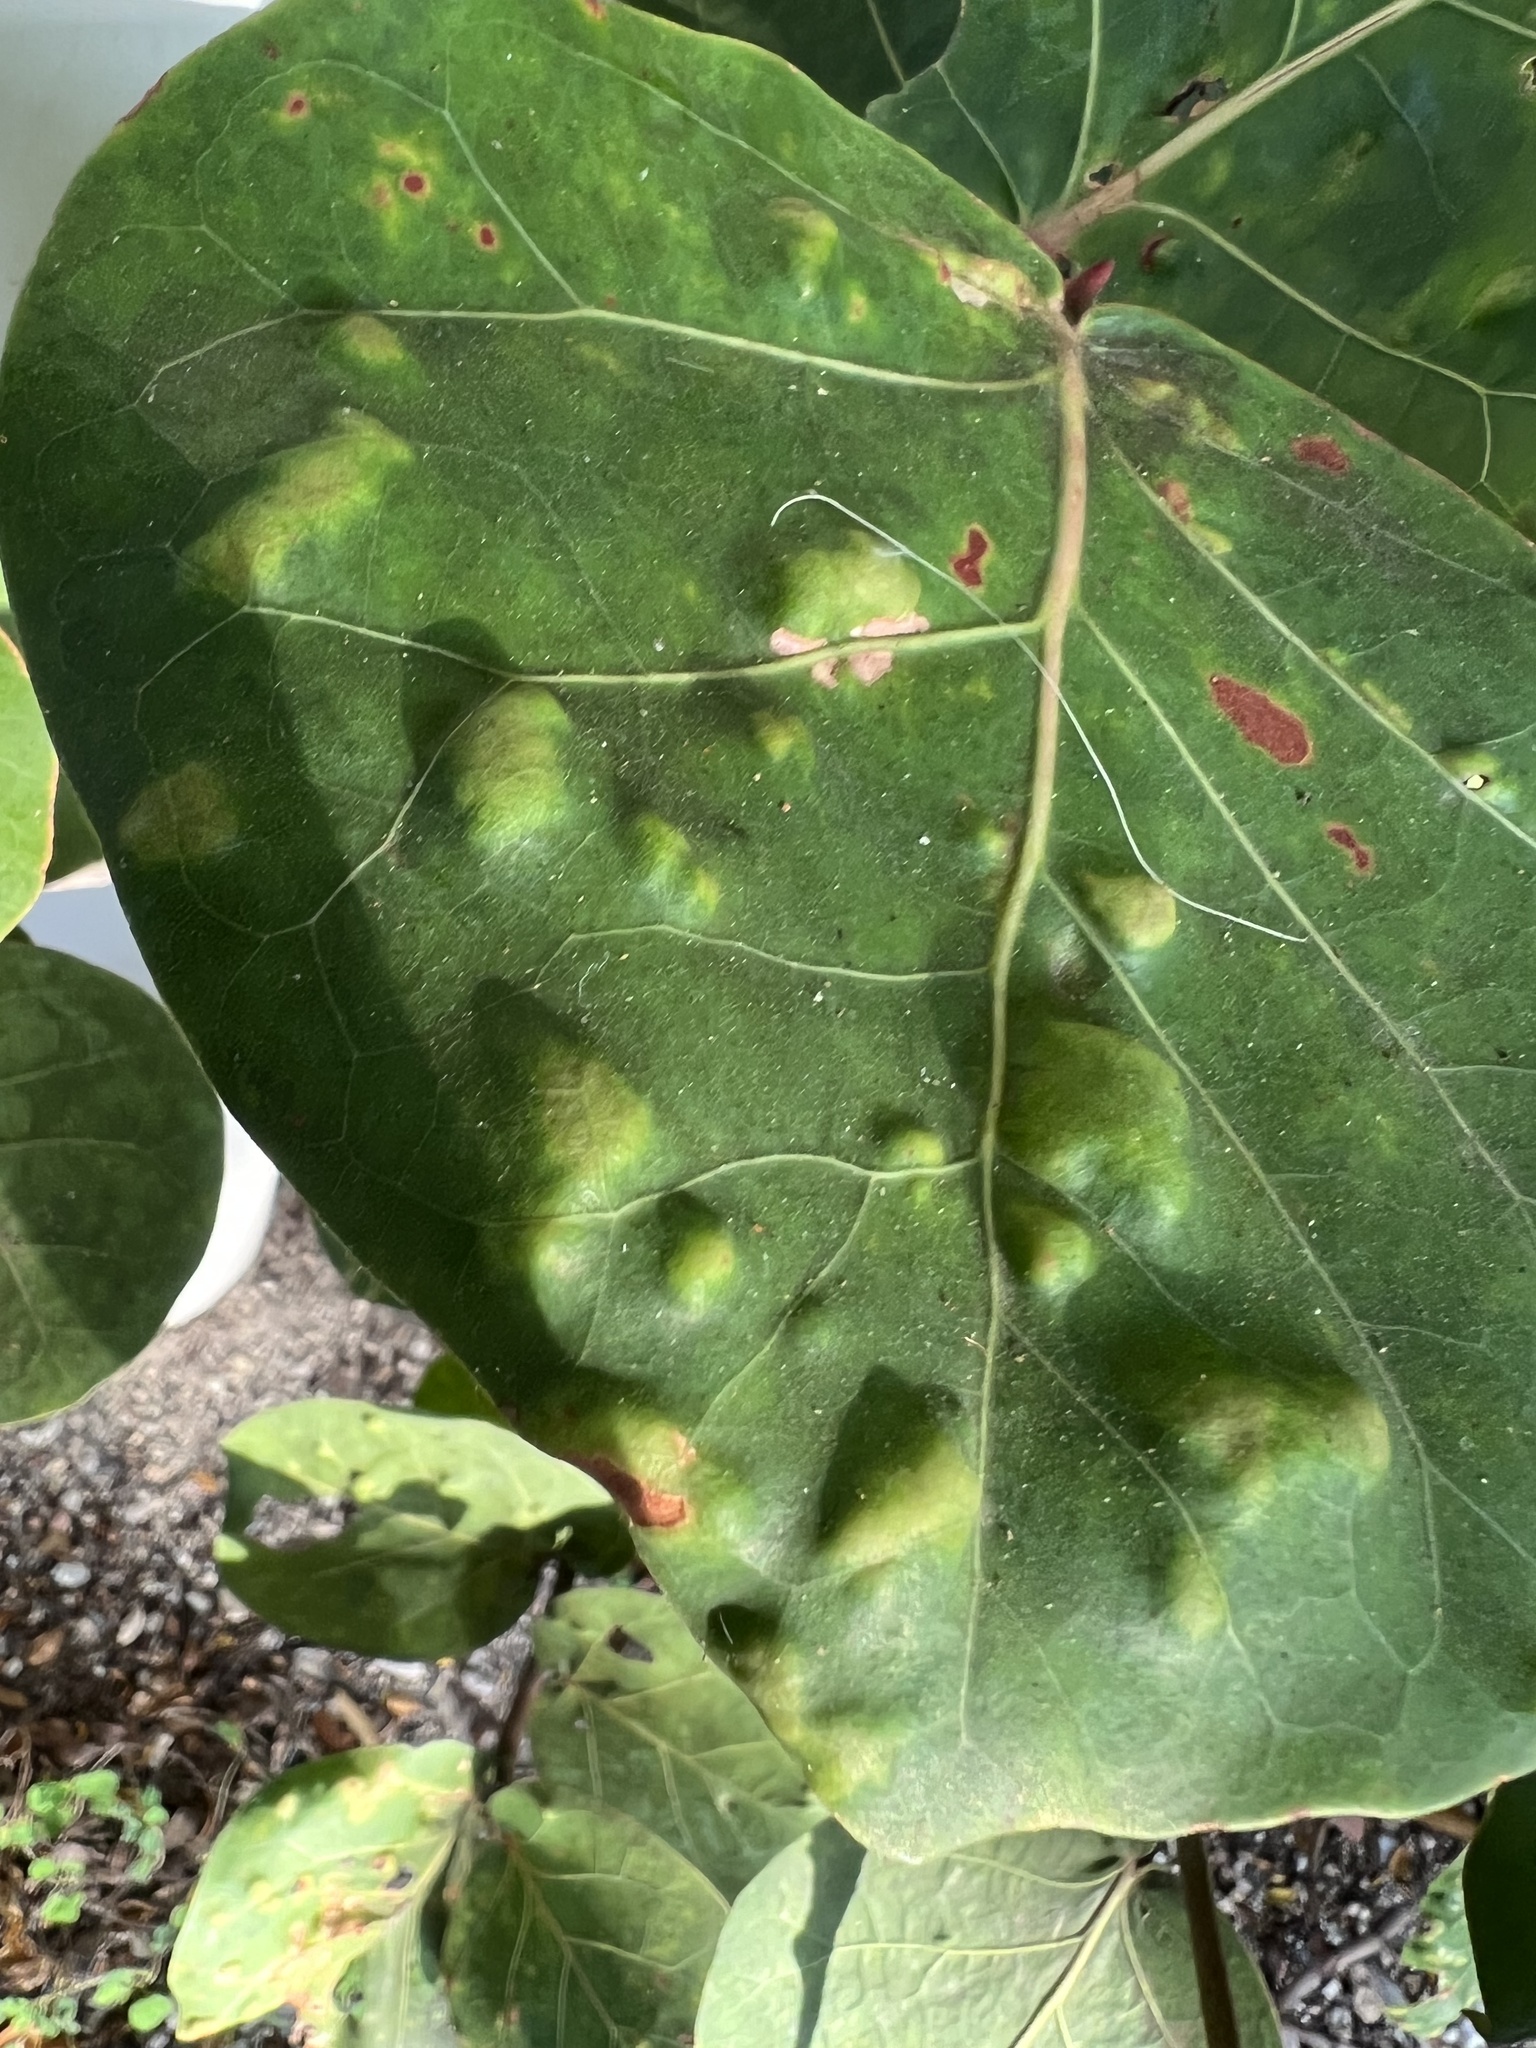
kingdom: Animalia
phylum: Arthropoda
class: Arachnida
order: Trombidiformes
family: Eriophyidae
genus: Aceria
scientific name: Aceria
